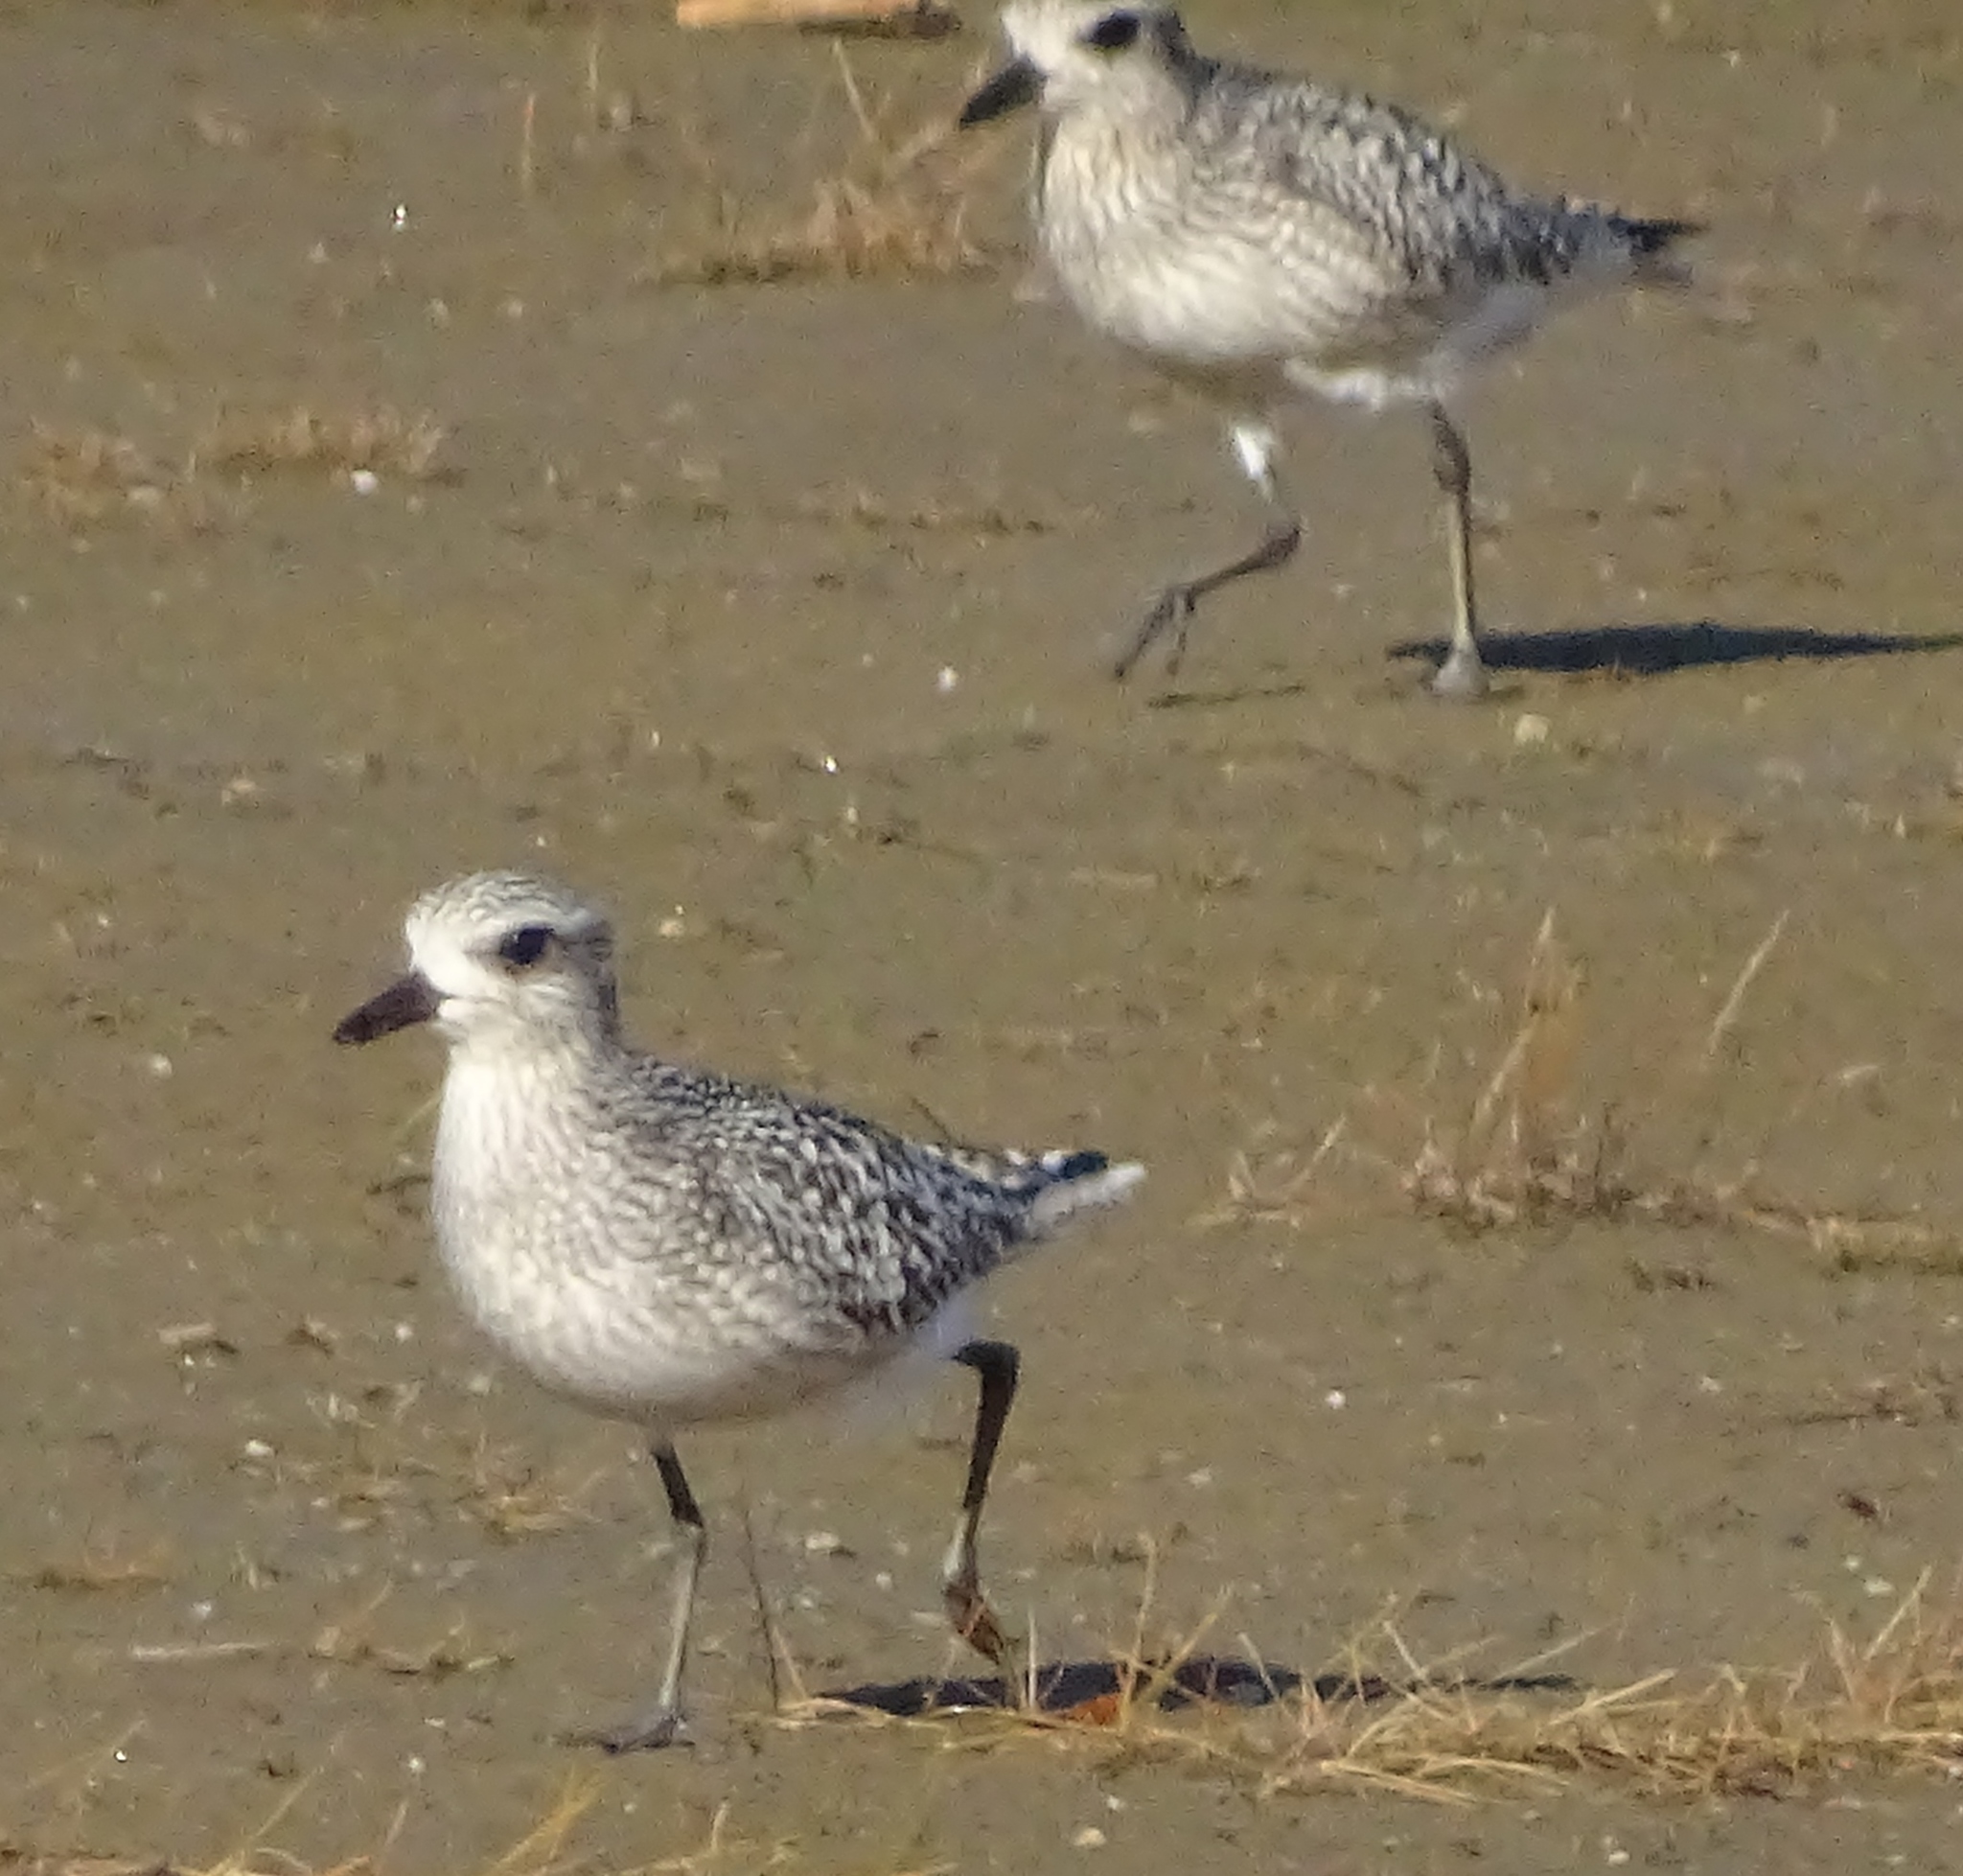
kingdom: Animalia
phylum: Chordata
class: Aves
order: Charadriiformes
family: Charadriidae
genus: Pluvialis
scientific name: Pluvialis squatarola
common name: Grey plover
